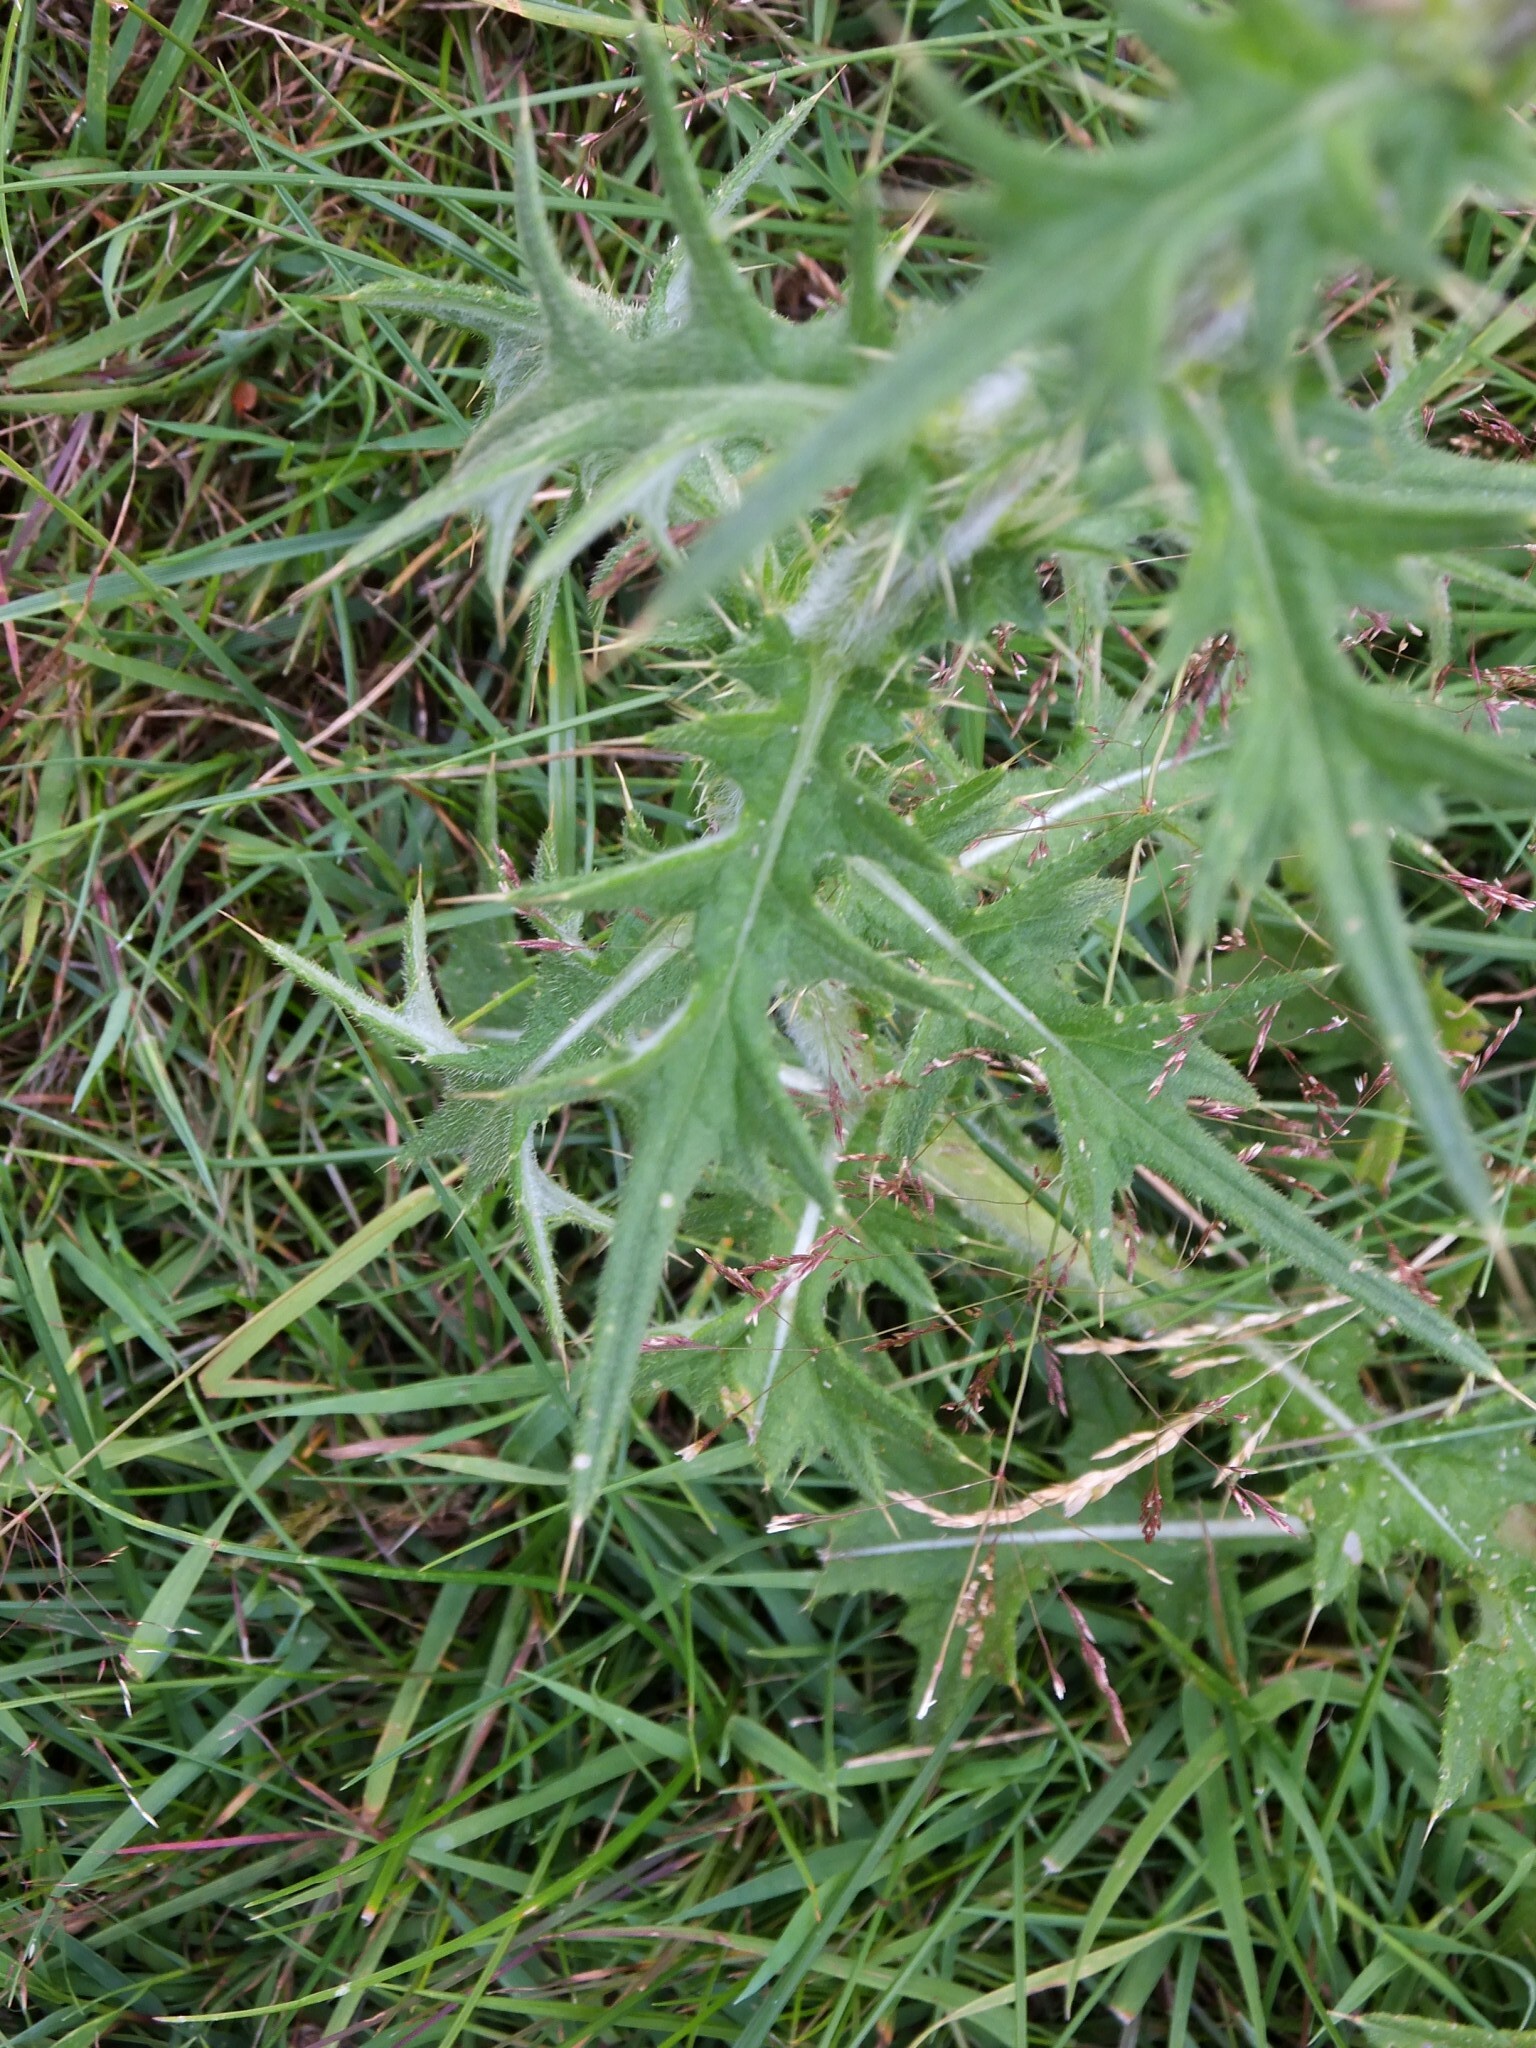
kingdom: Plantae
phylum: Tracheophyta
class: Magnoliopsida
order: Asterales
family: Asteraceae
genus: Cirsium
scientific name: Cirsium vulgare
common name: Bull thistle
